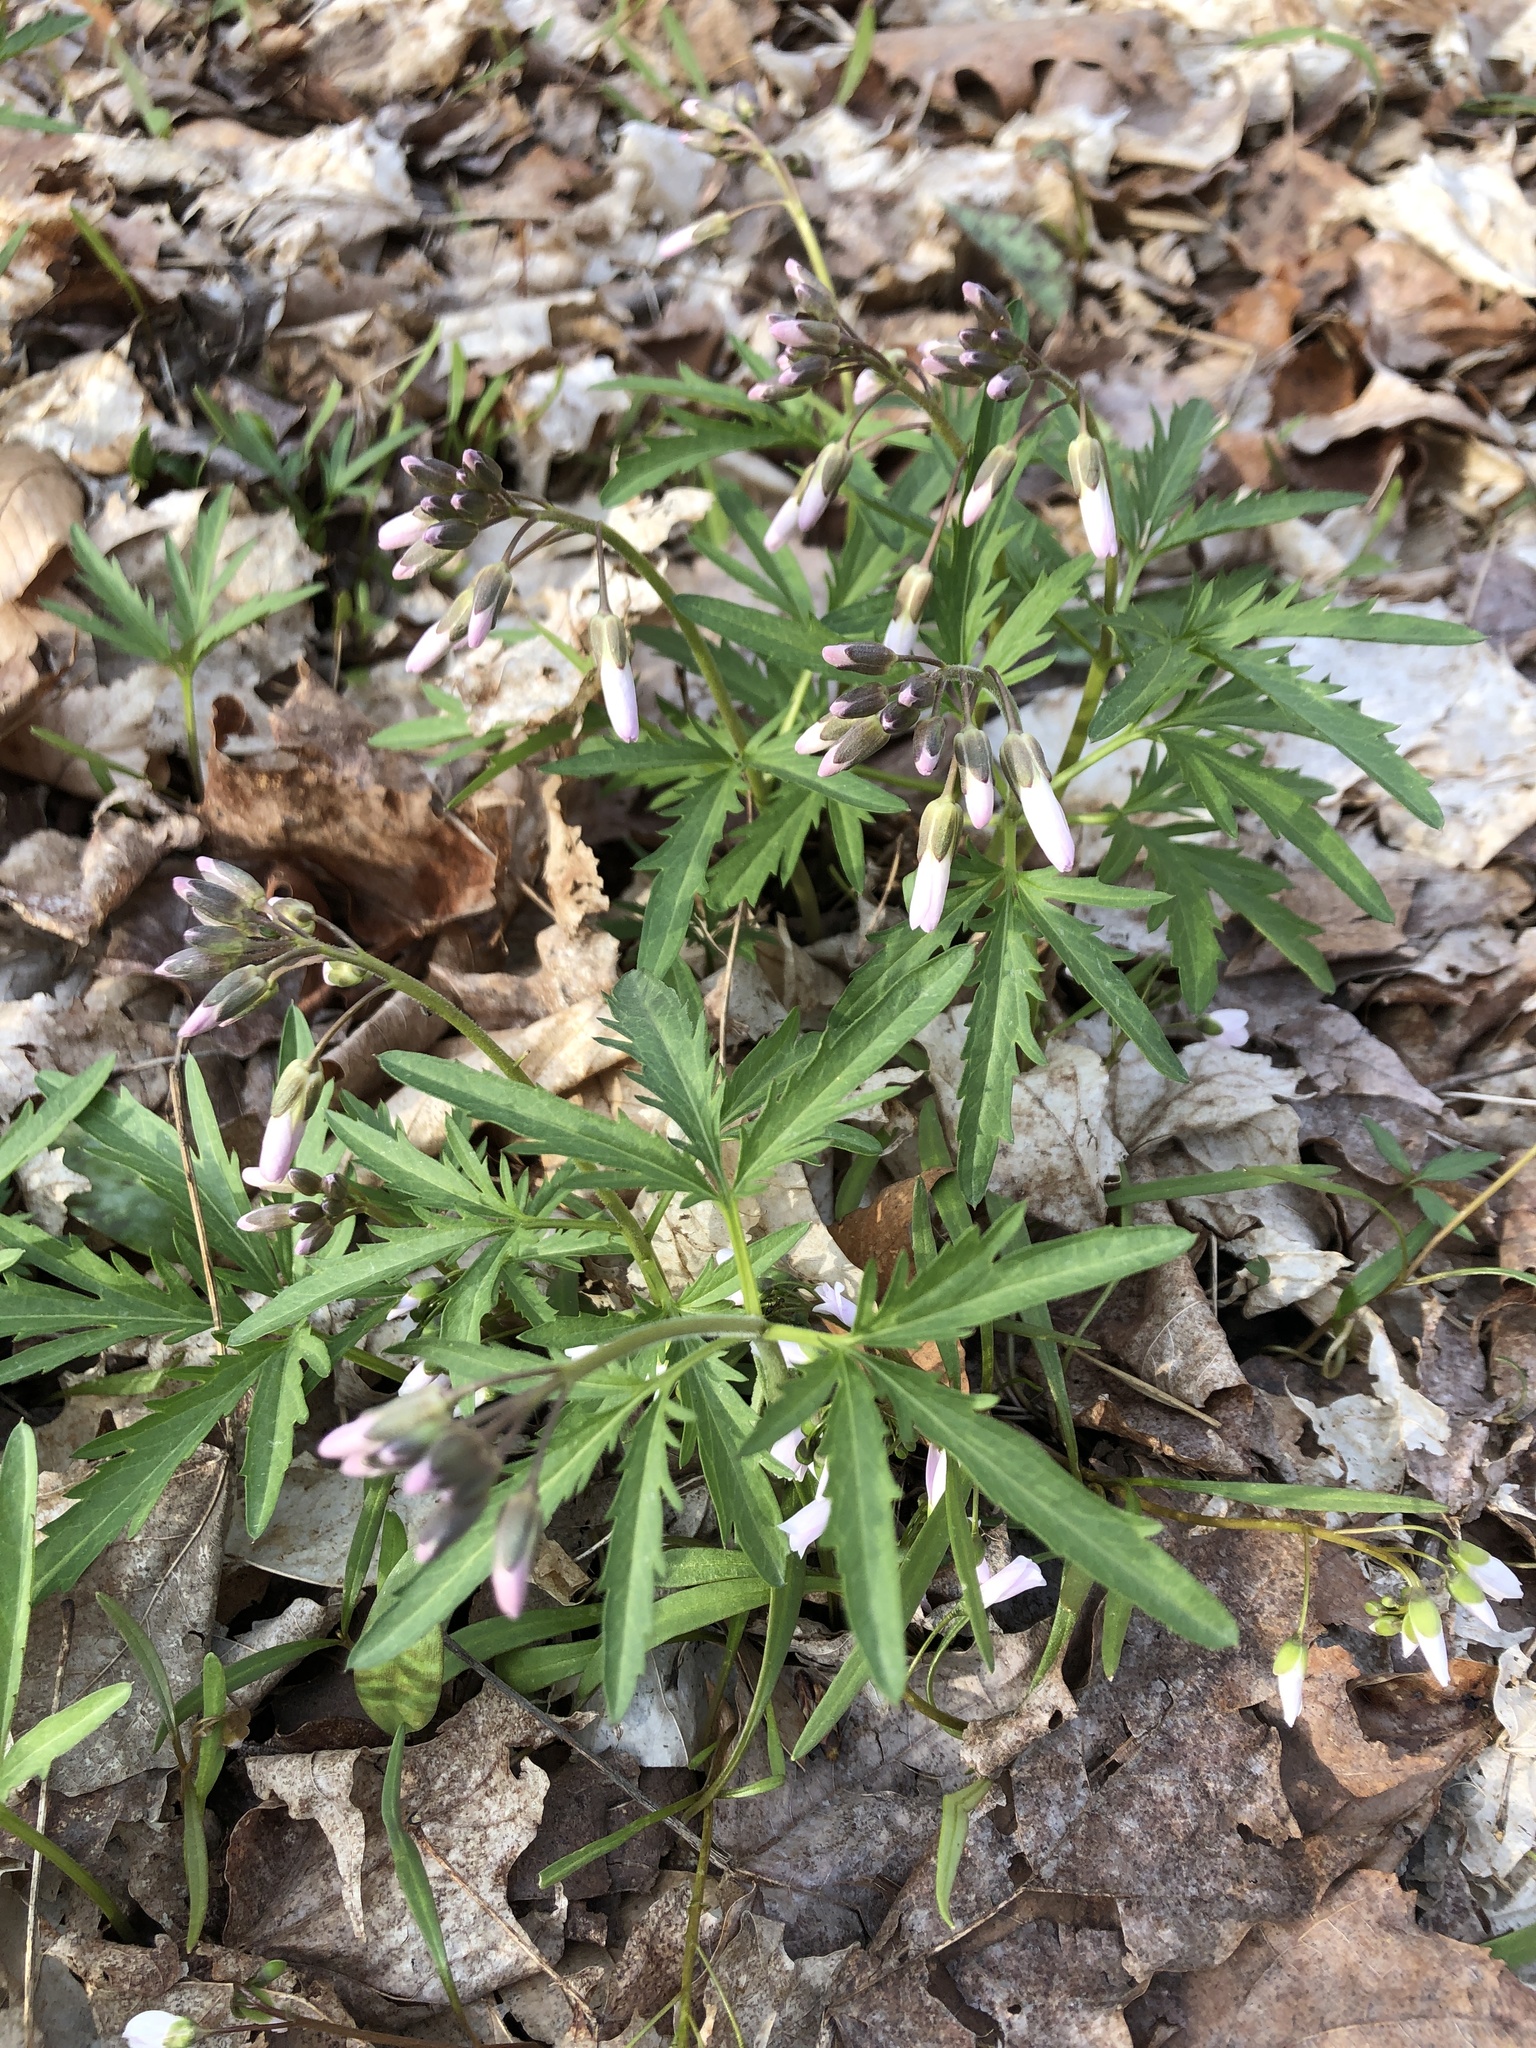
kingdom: Plantae
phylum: Tracheophyta
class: Magnoliopsida
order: Brassicales
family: Brassicaceae
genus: Cardamine
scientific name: Cardamine concatenata
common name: Cut-leaf toothcup
